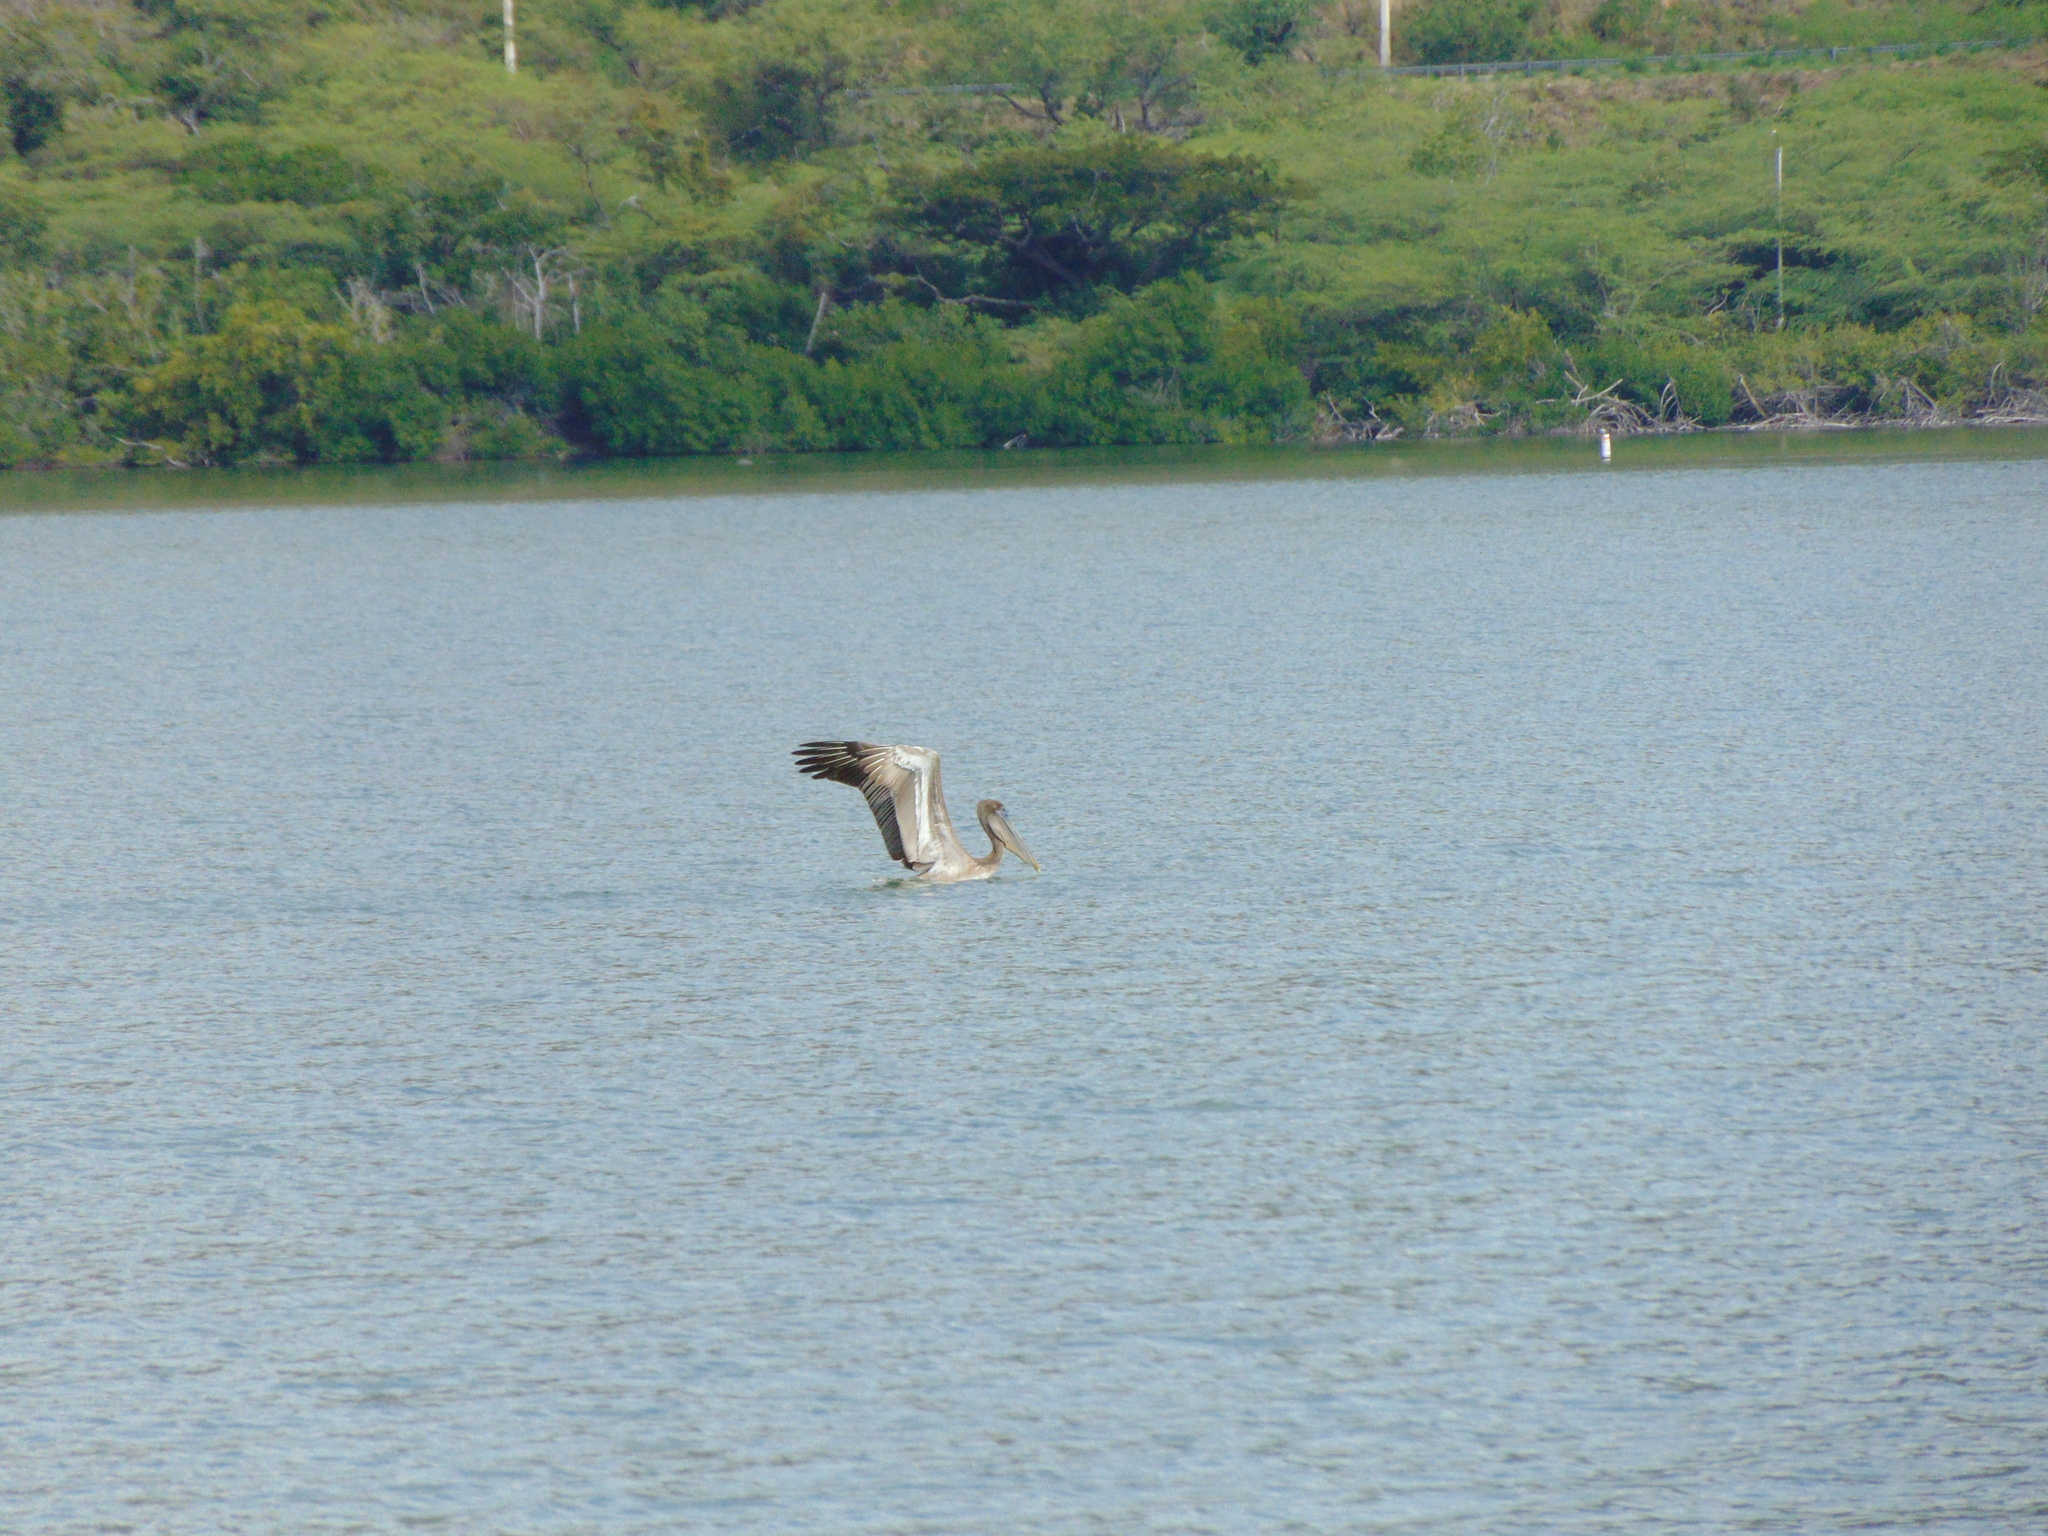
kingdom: Animalia
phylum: Chordata
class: Aves
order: Pelecaniformes
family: Pelecanidae
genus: Pelecanus
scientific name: Pelecanus occidentalis
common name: Brown pelican
